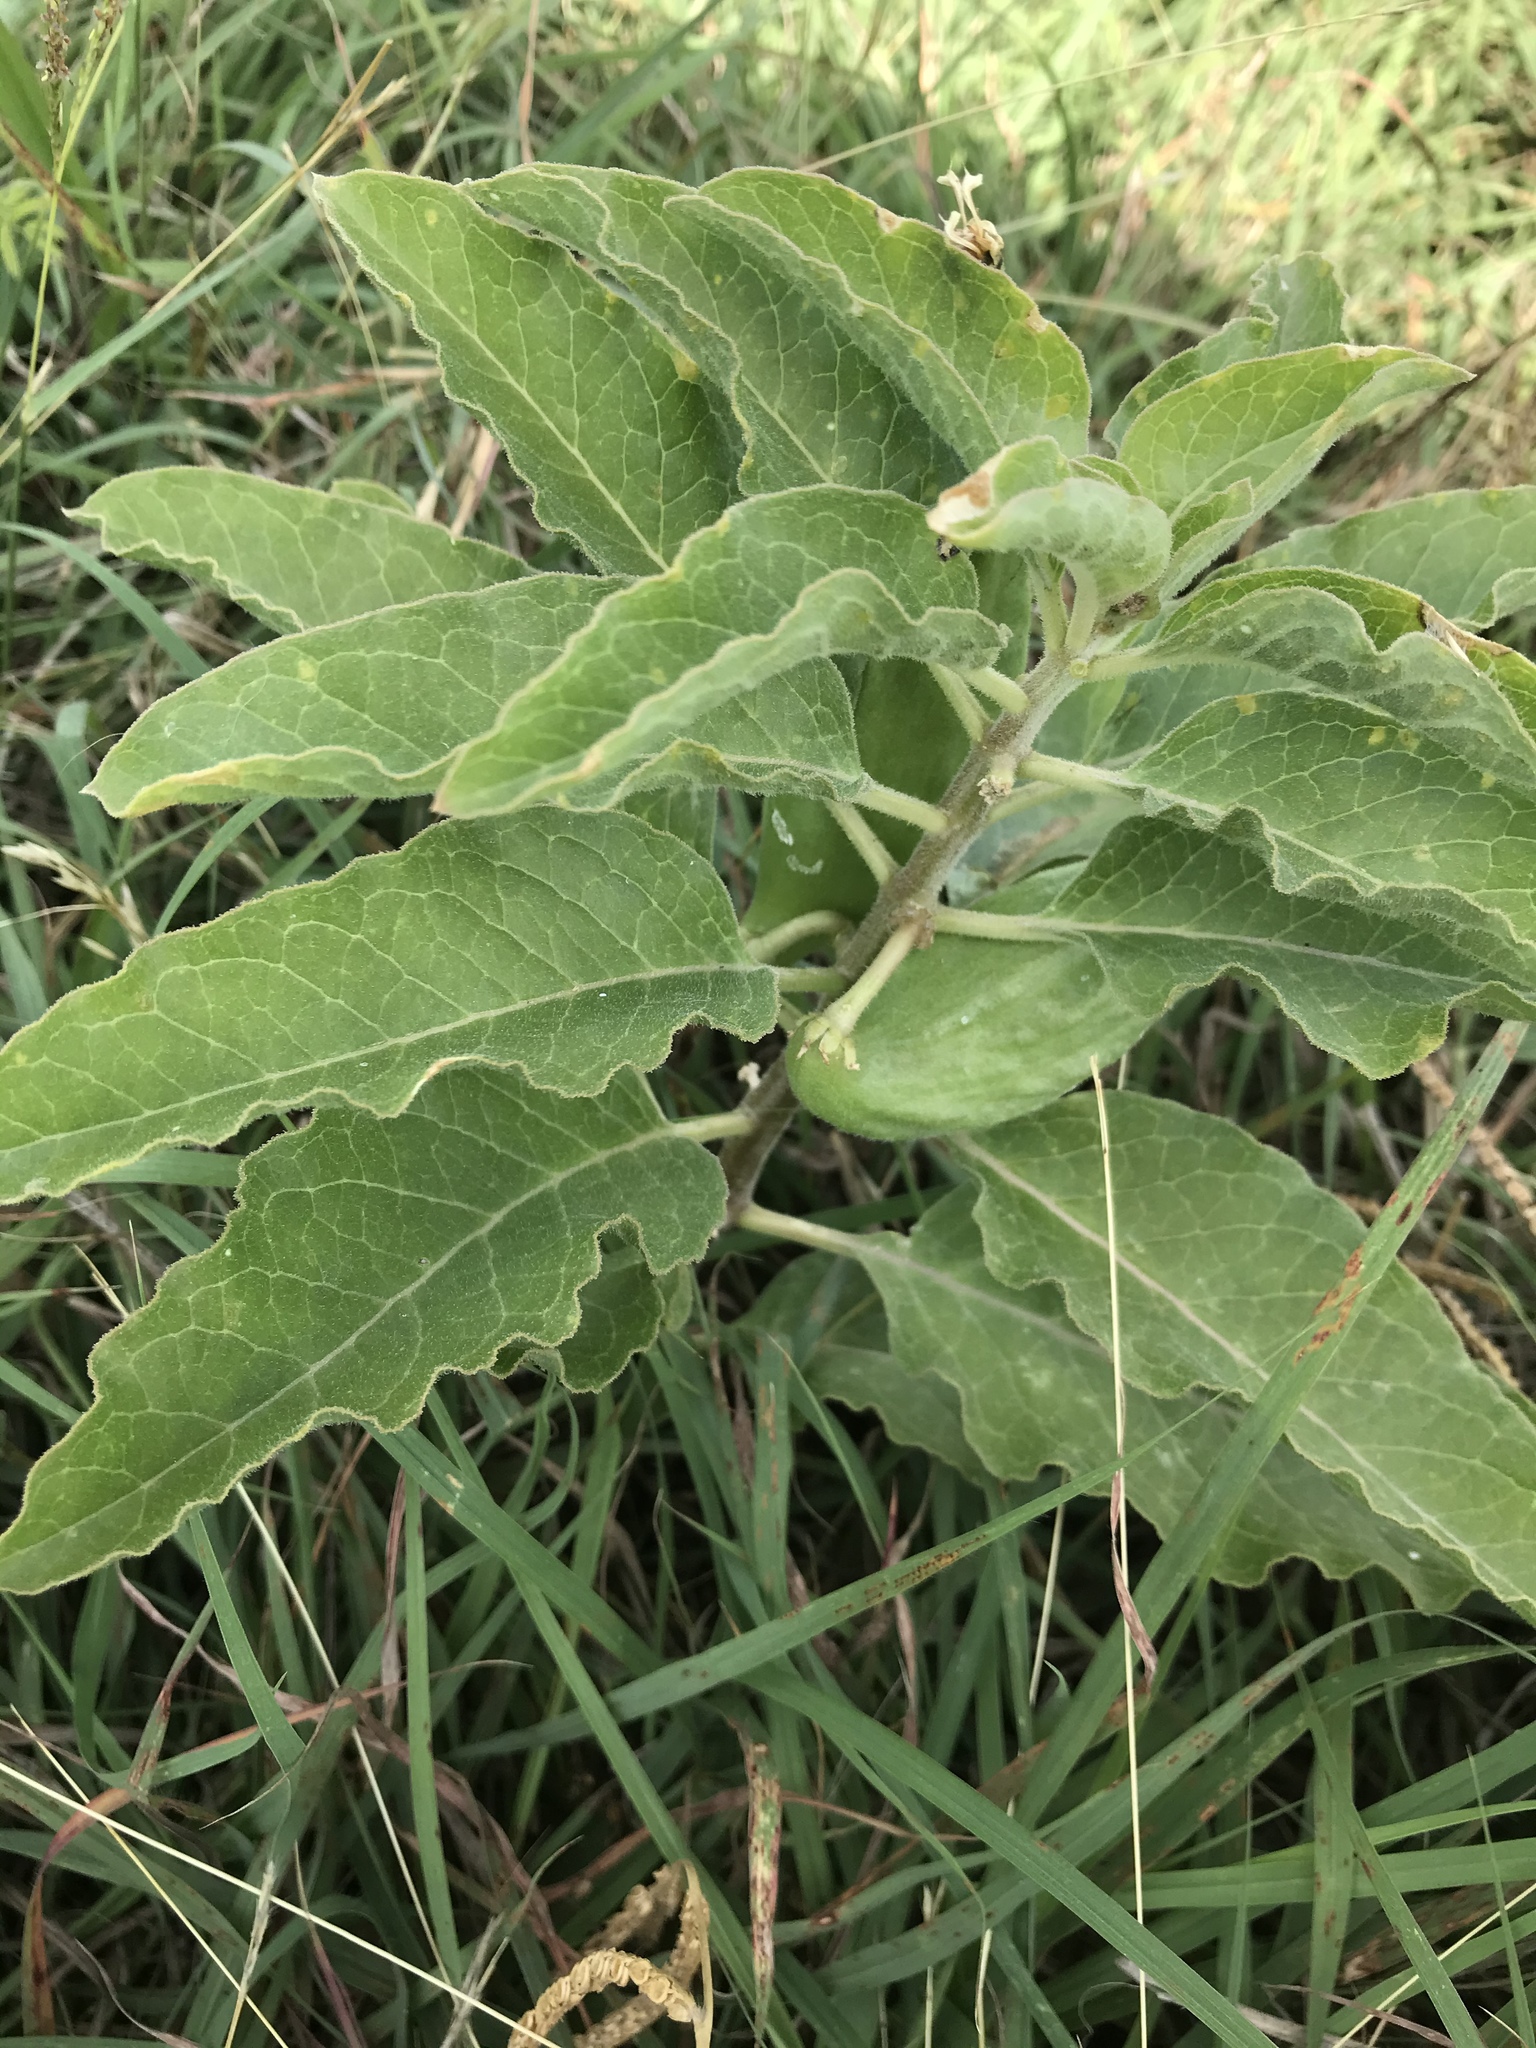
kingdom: Plantae
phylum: Tracheophyta
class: Magnoliopsida
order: Gentianales
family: Apocynaceae
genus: Asclepias
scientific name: Asclepias oenotheroides
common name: Zizotes milkweed
